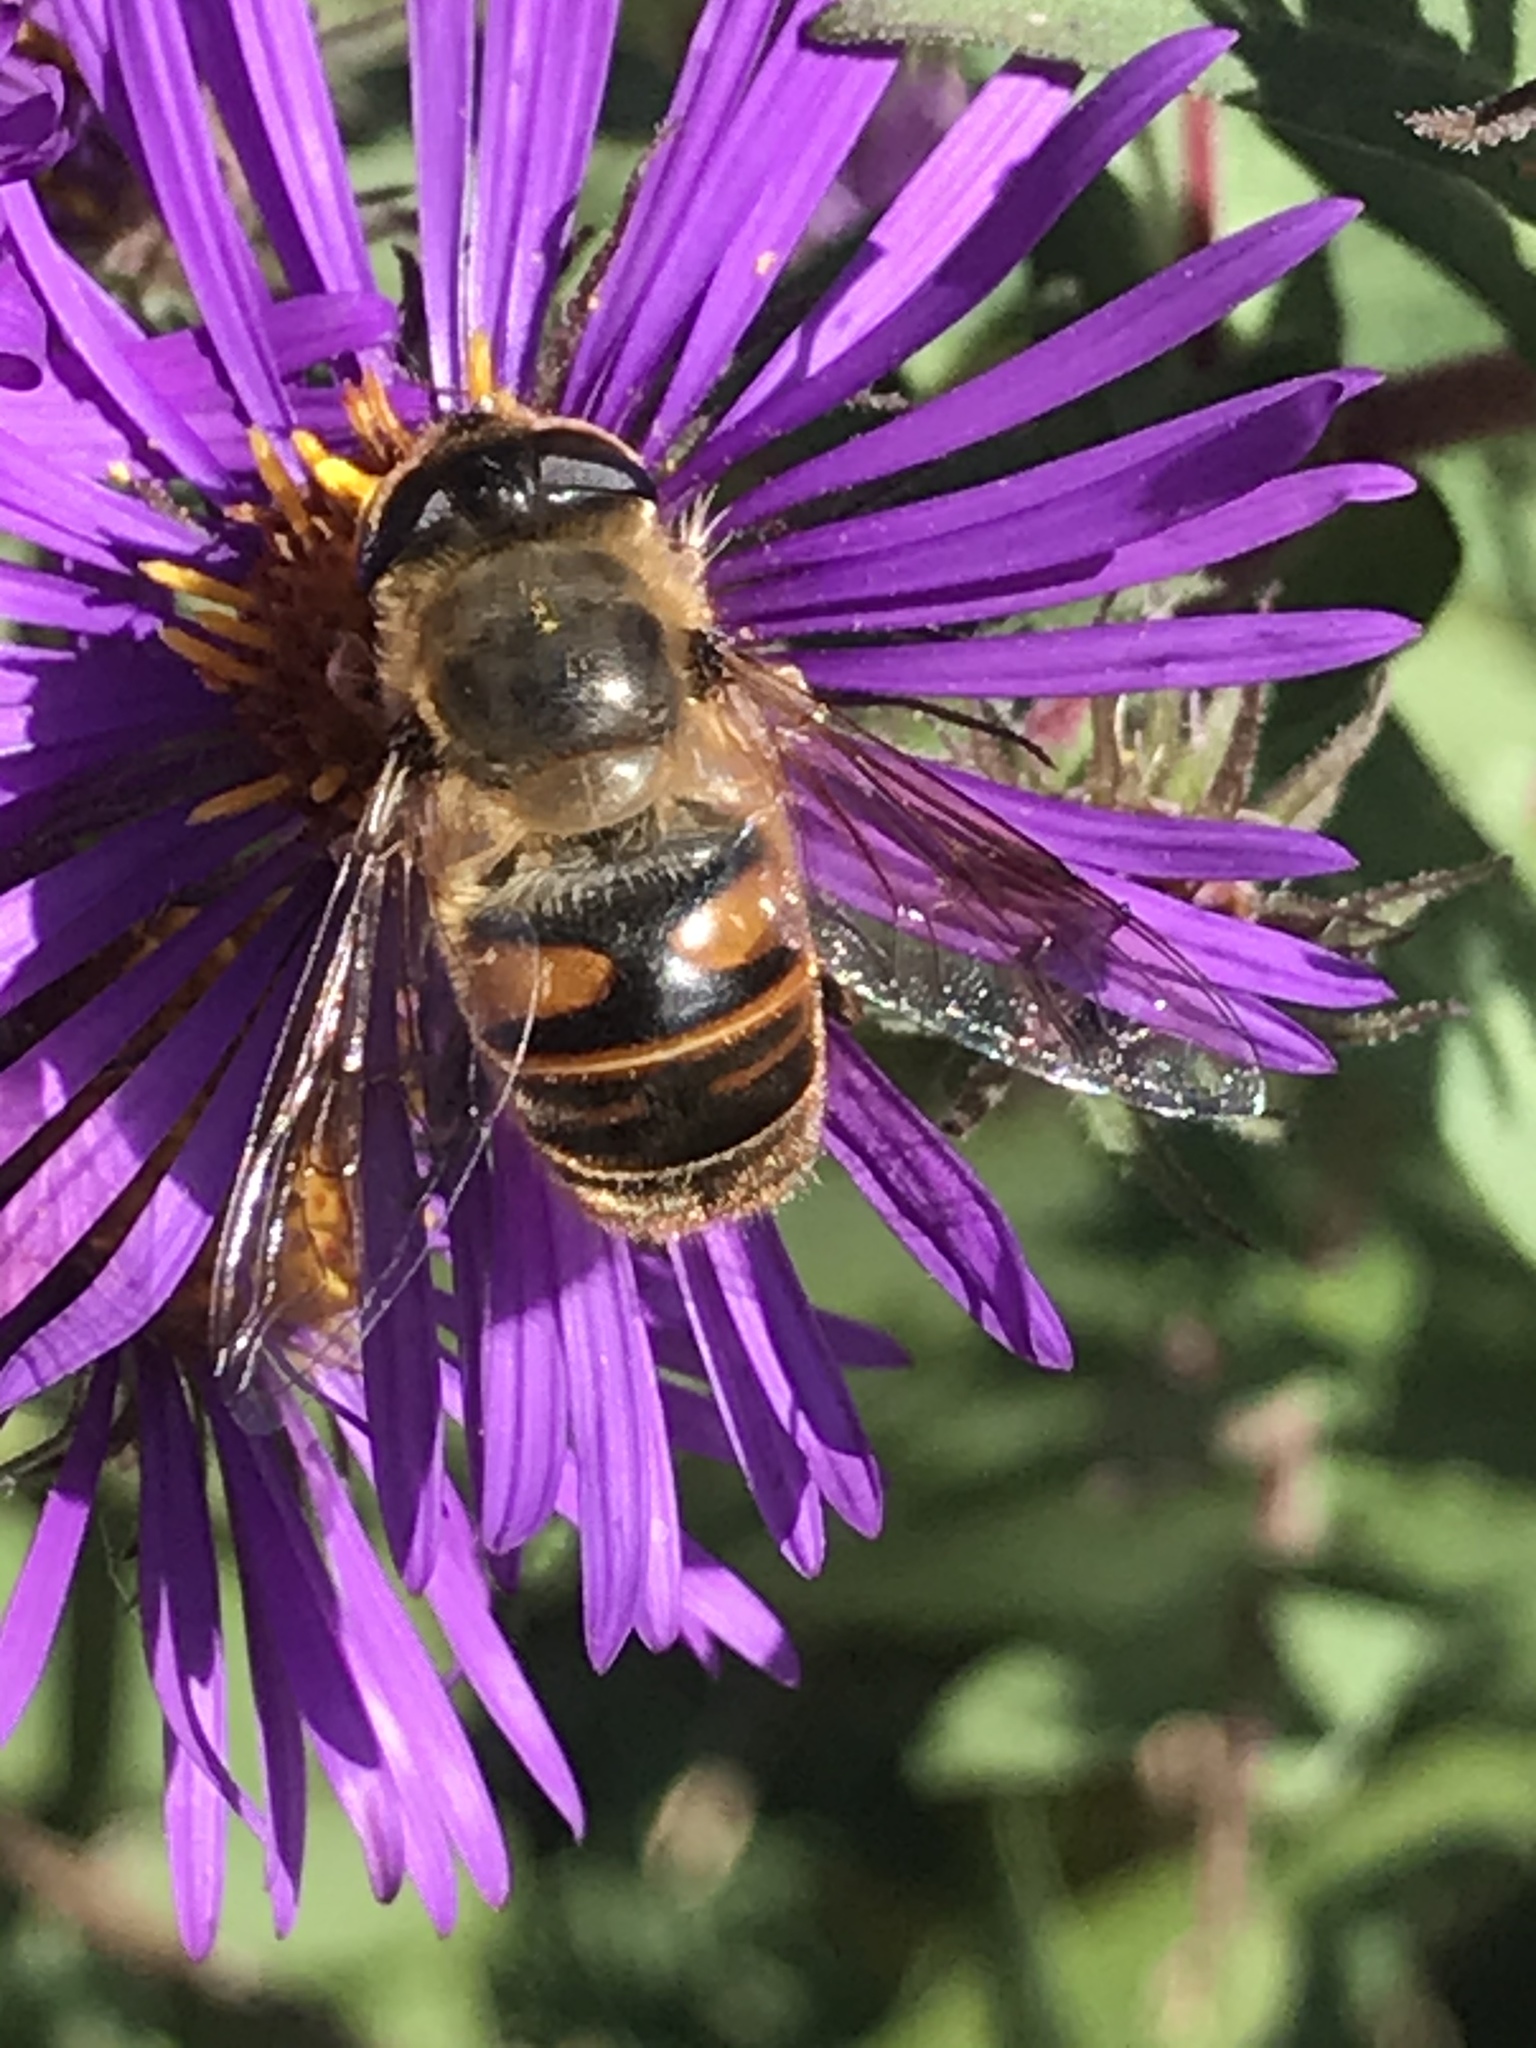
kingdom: Animalia
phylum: Arthropoda
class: Insecta
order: Diptera
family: Syrphidae
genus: Eristalis
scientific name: Eristalis tenax
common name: Drone fly
